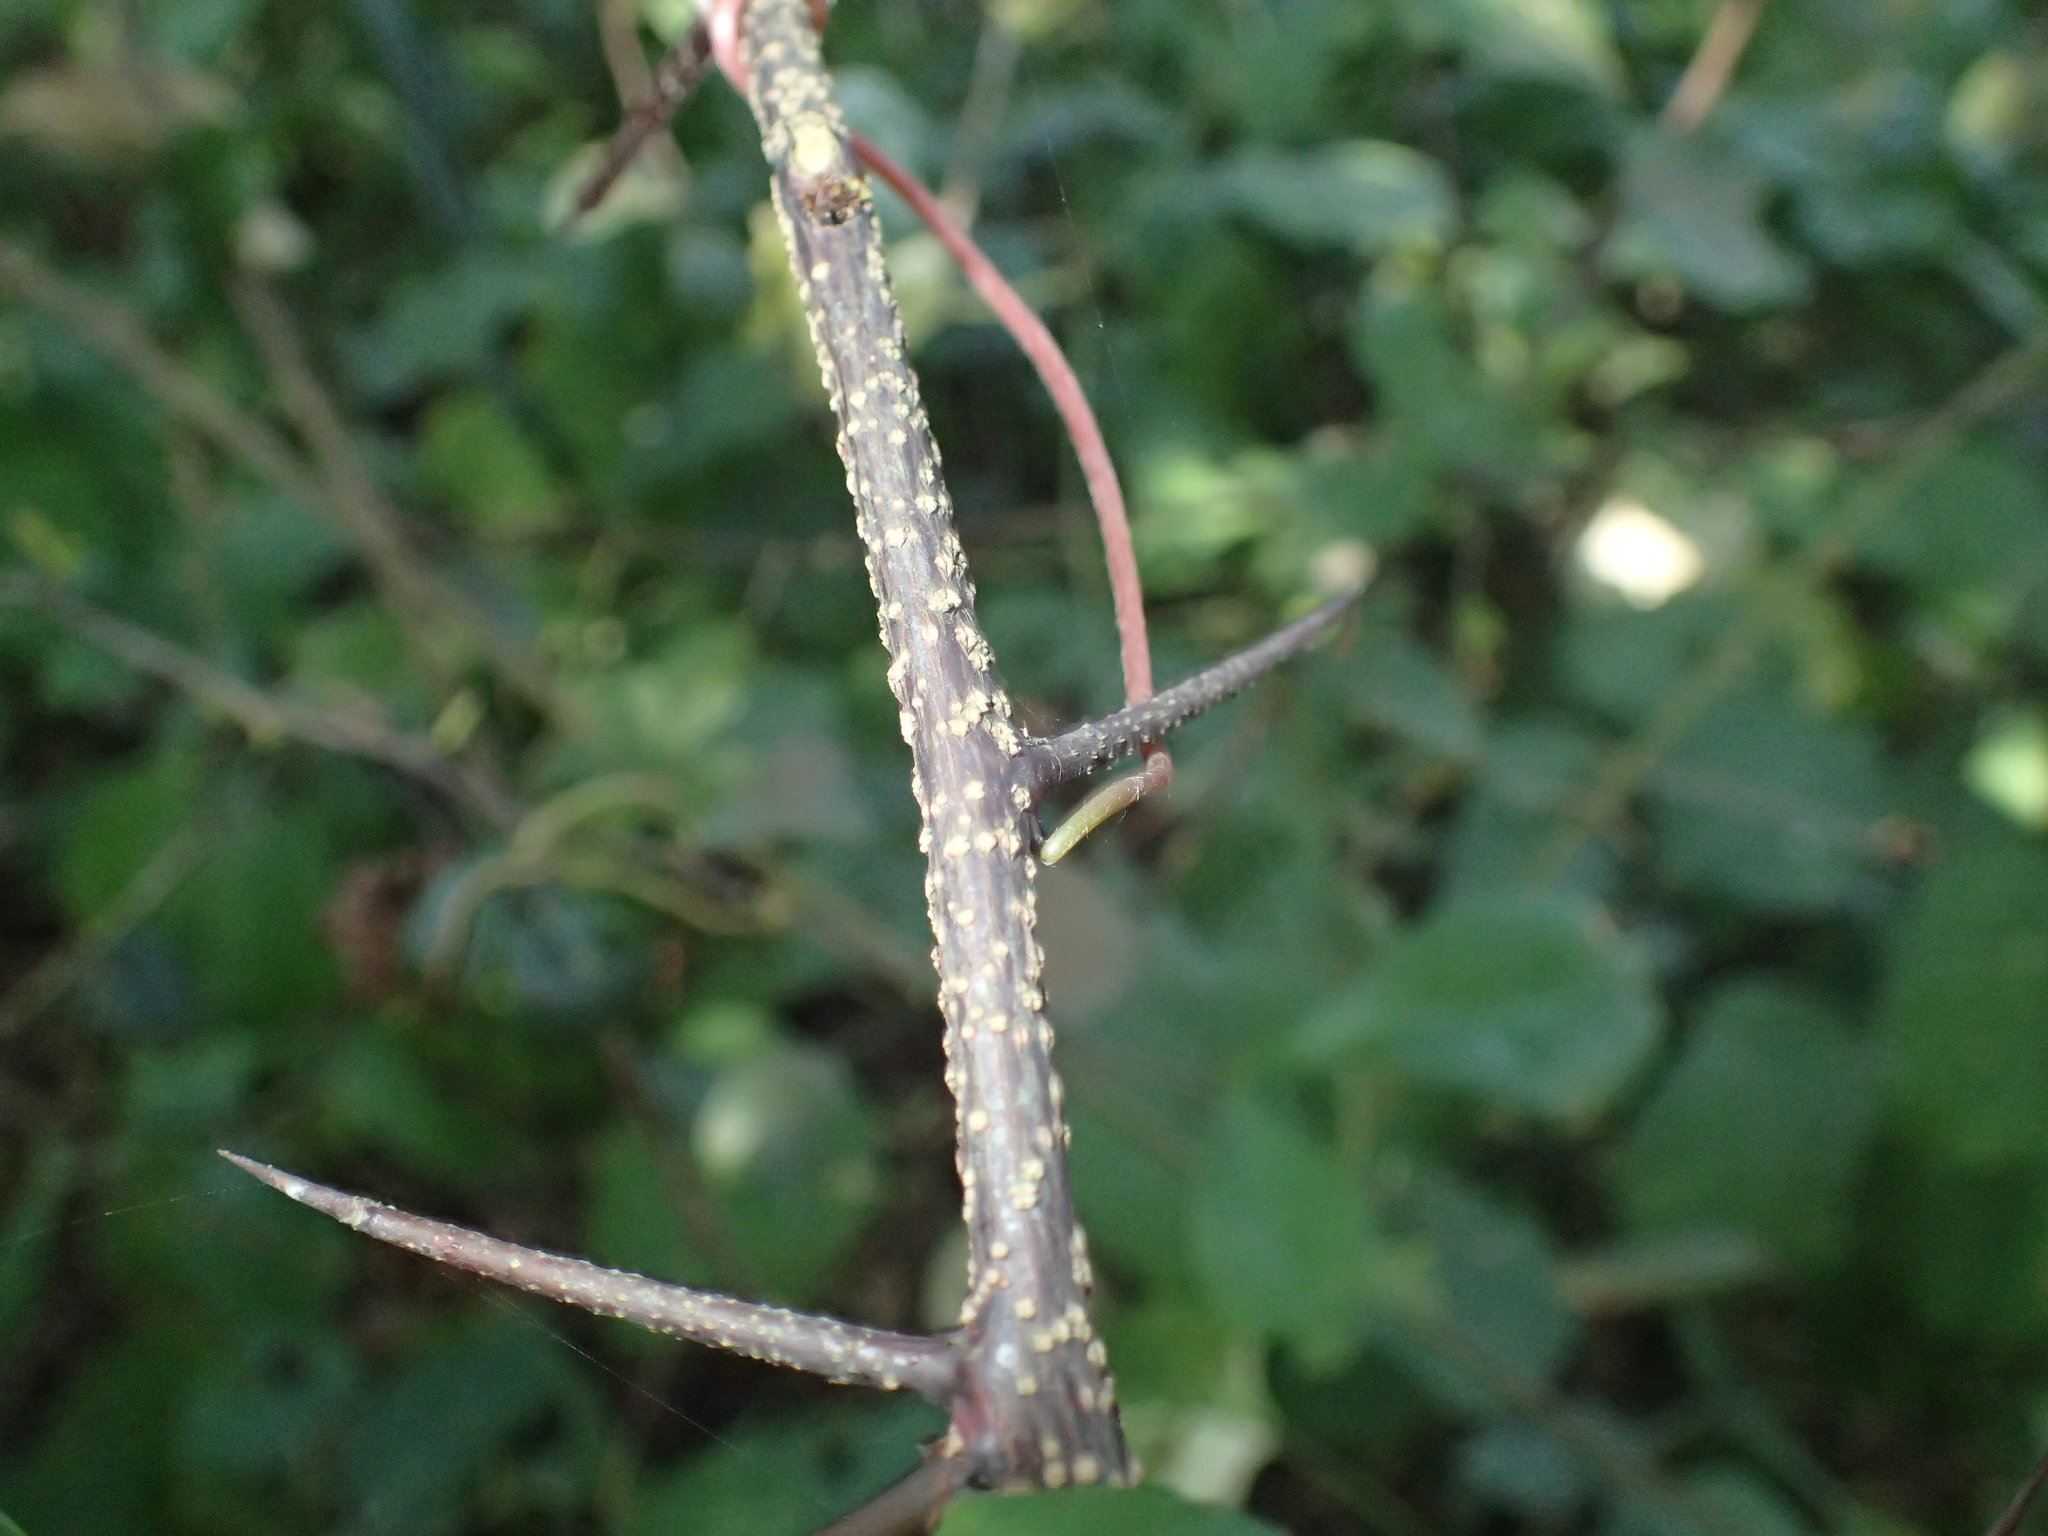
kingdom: Plantae
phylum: Tracheophyta
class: Magnoliopsida
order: Celastrales
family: Celastraceae
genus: Putterlickia
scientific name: Putterlickia retrospinosa
